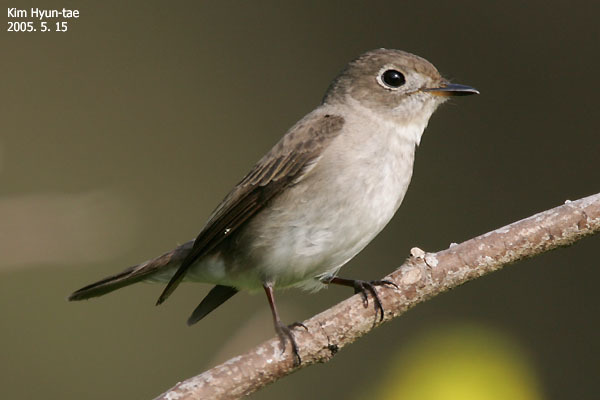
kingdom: Animalia
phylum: Chordata
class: Aves
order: Passeriformes
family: Muscicapidae
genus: Muscicapa
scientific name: Muscicapa latirostris
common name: Asian brown flycatcher
